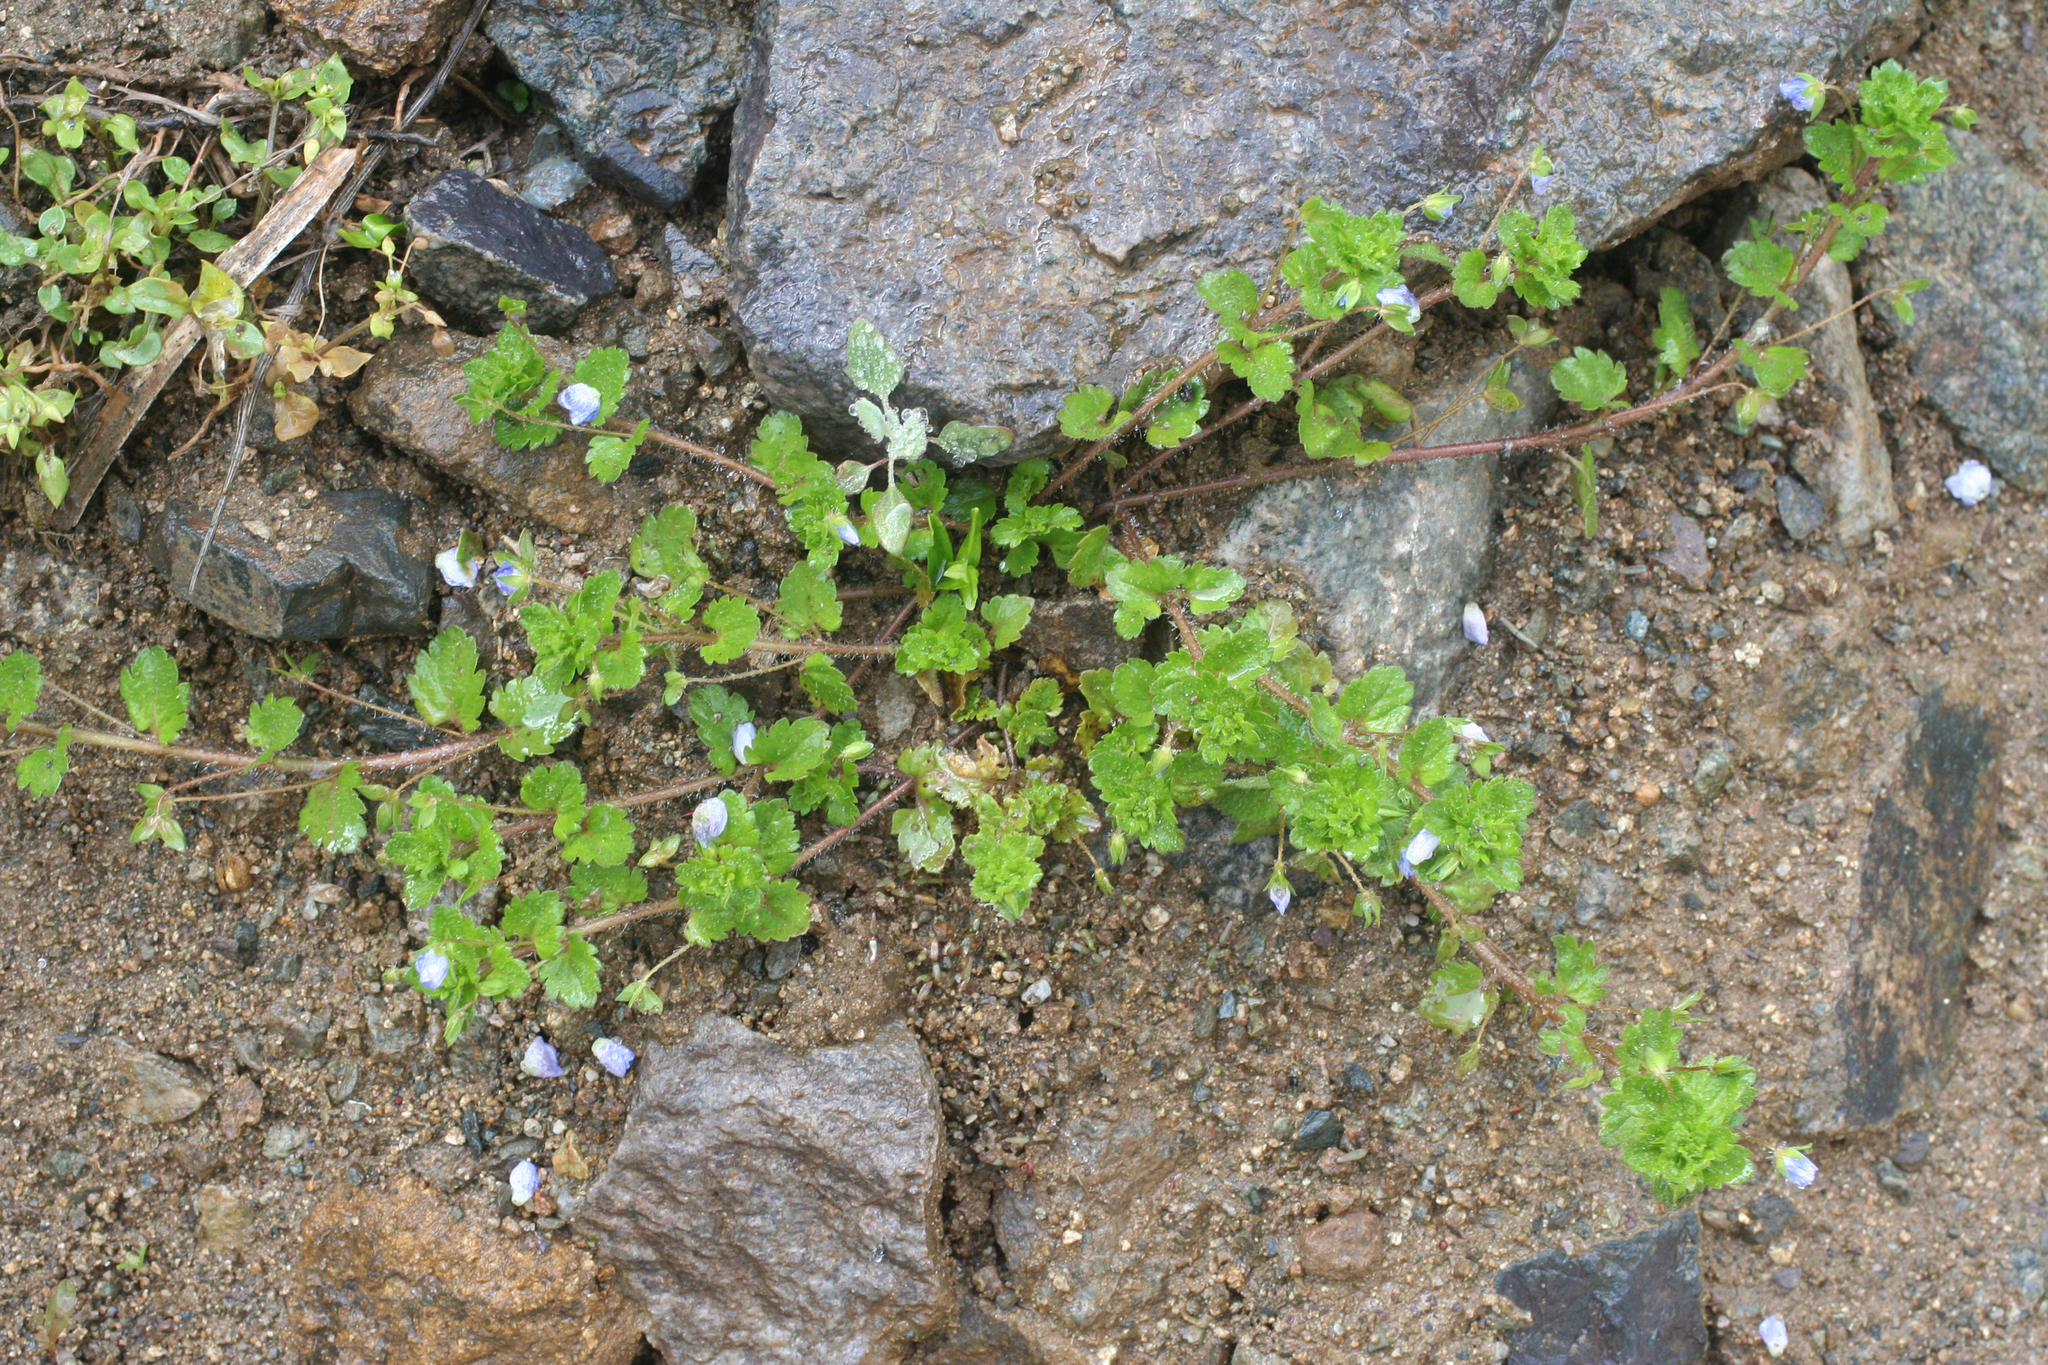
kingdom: Plantae
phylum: Tracheophyta
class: Magnoliopsida
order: Lamiales
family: Plantaginaceae
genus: Veronica
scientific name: Veronica persica
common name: Common field-speedwell
